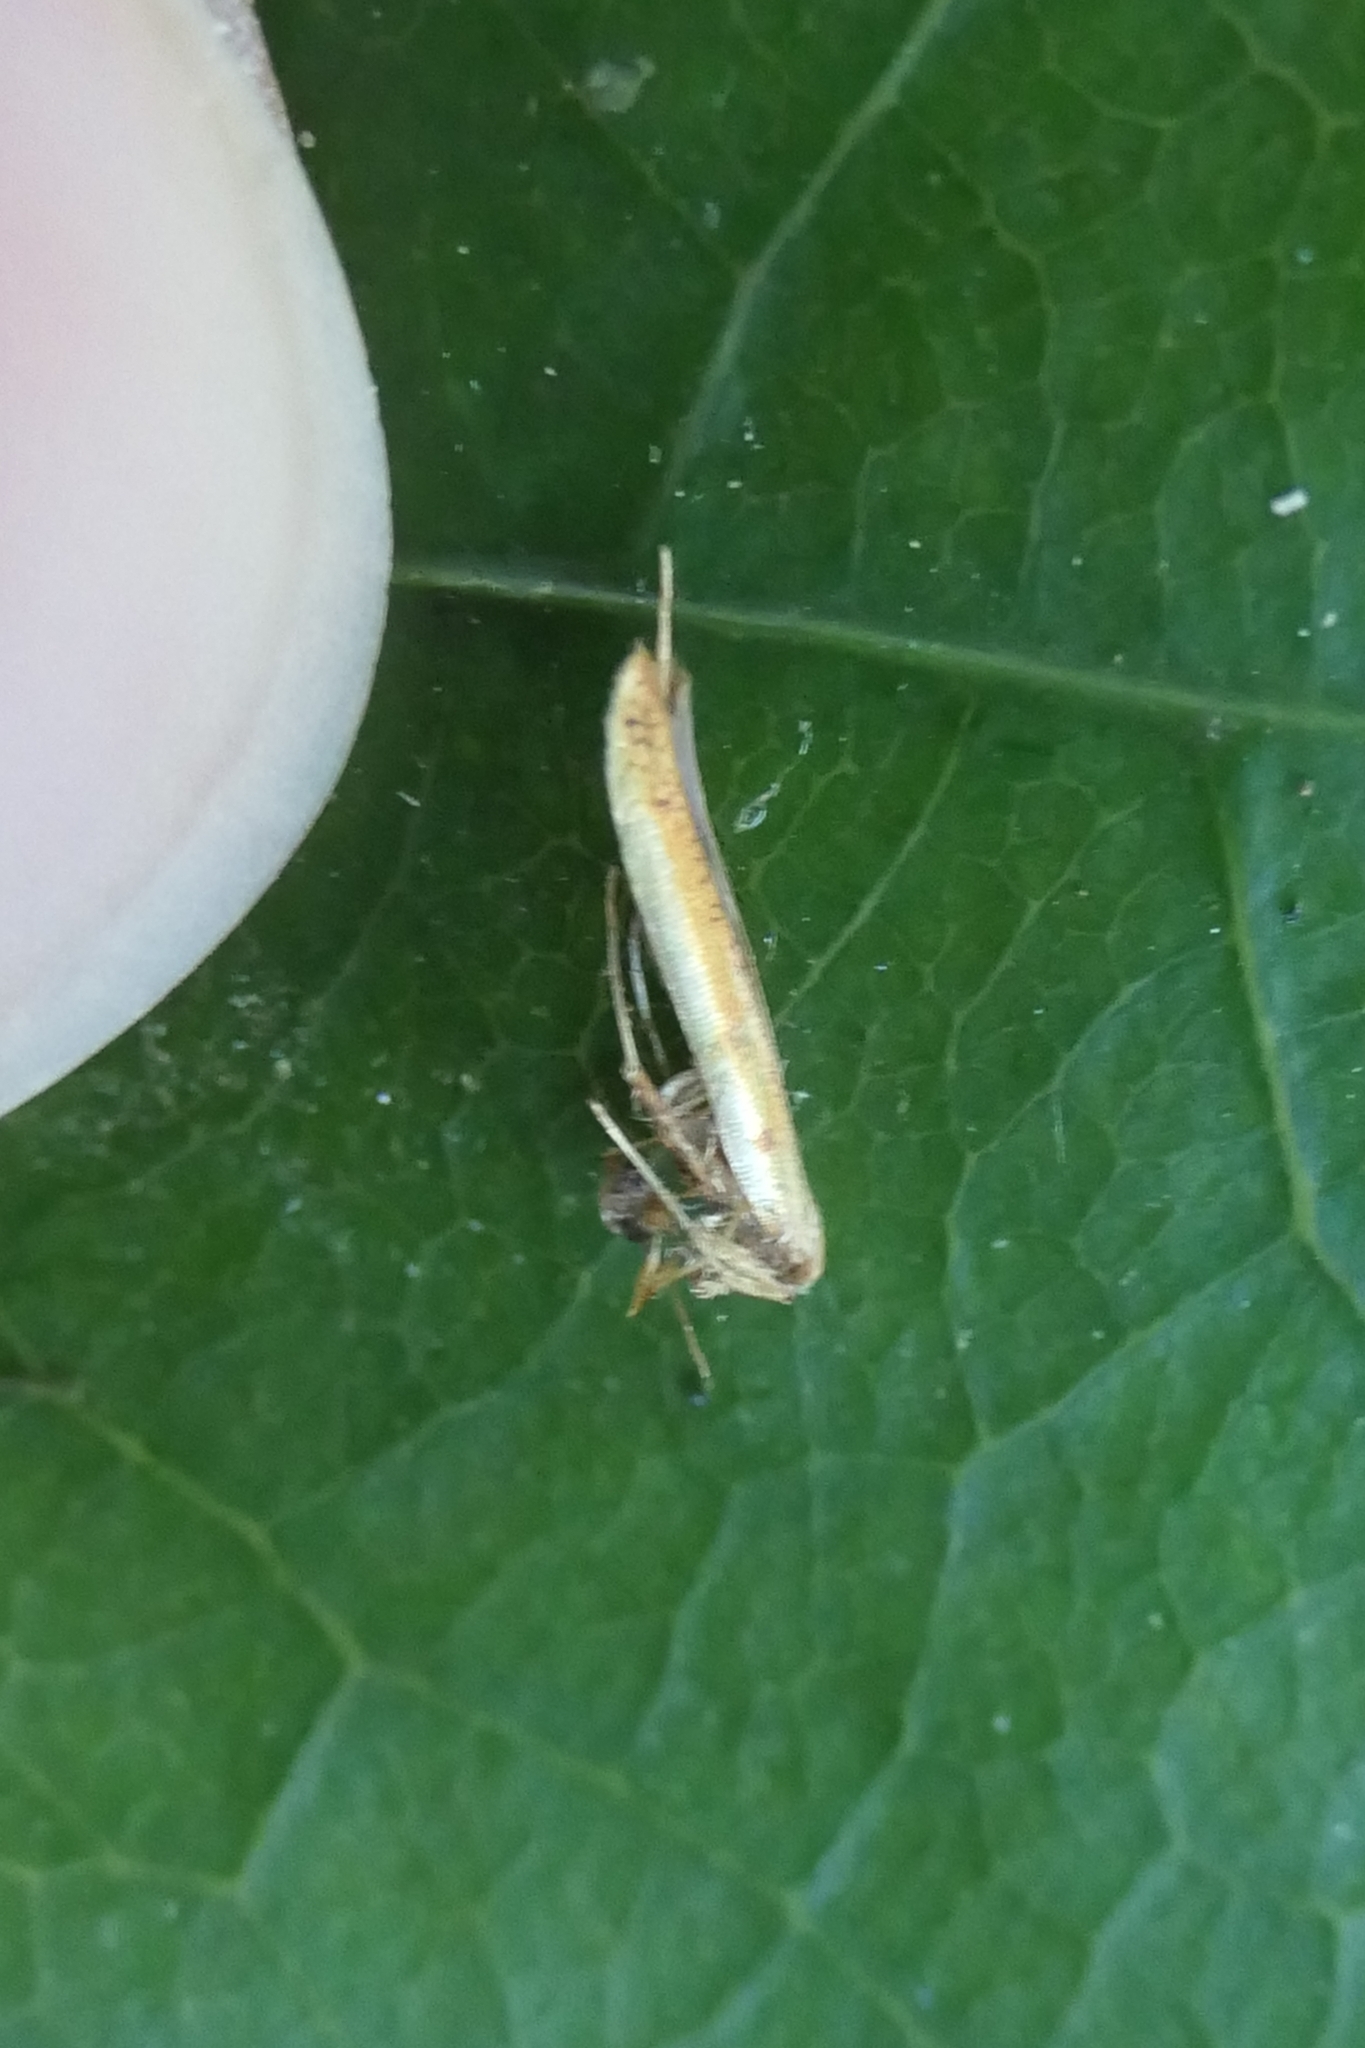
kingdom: Animalia
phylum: Arthropoda
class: Insecta
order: Lepidoptera
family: Gracillariidae
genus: Caloptilia
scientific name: Caloptilia chrysitis
